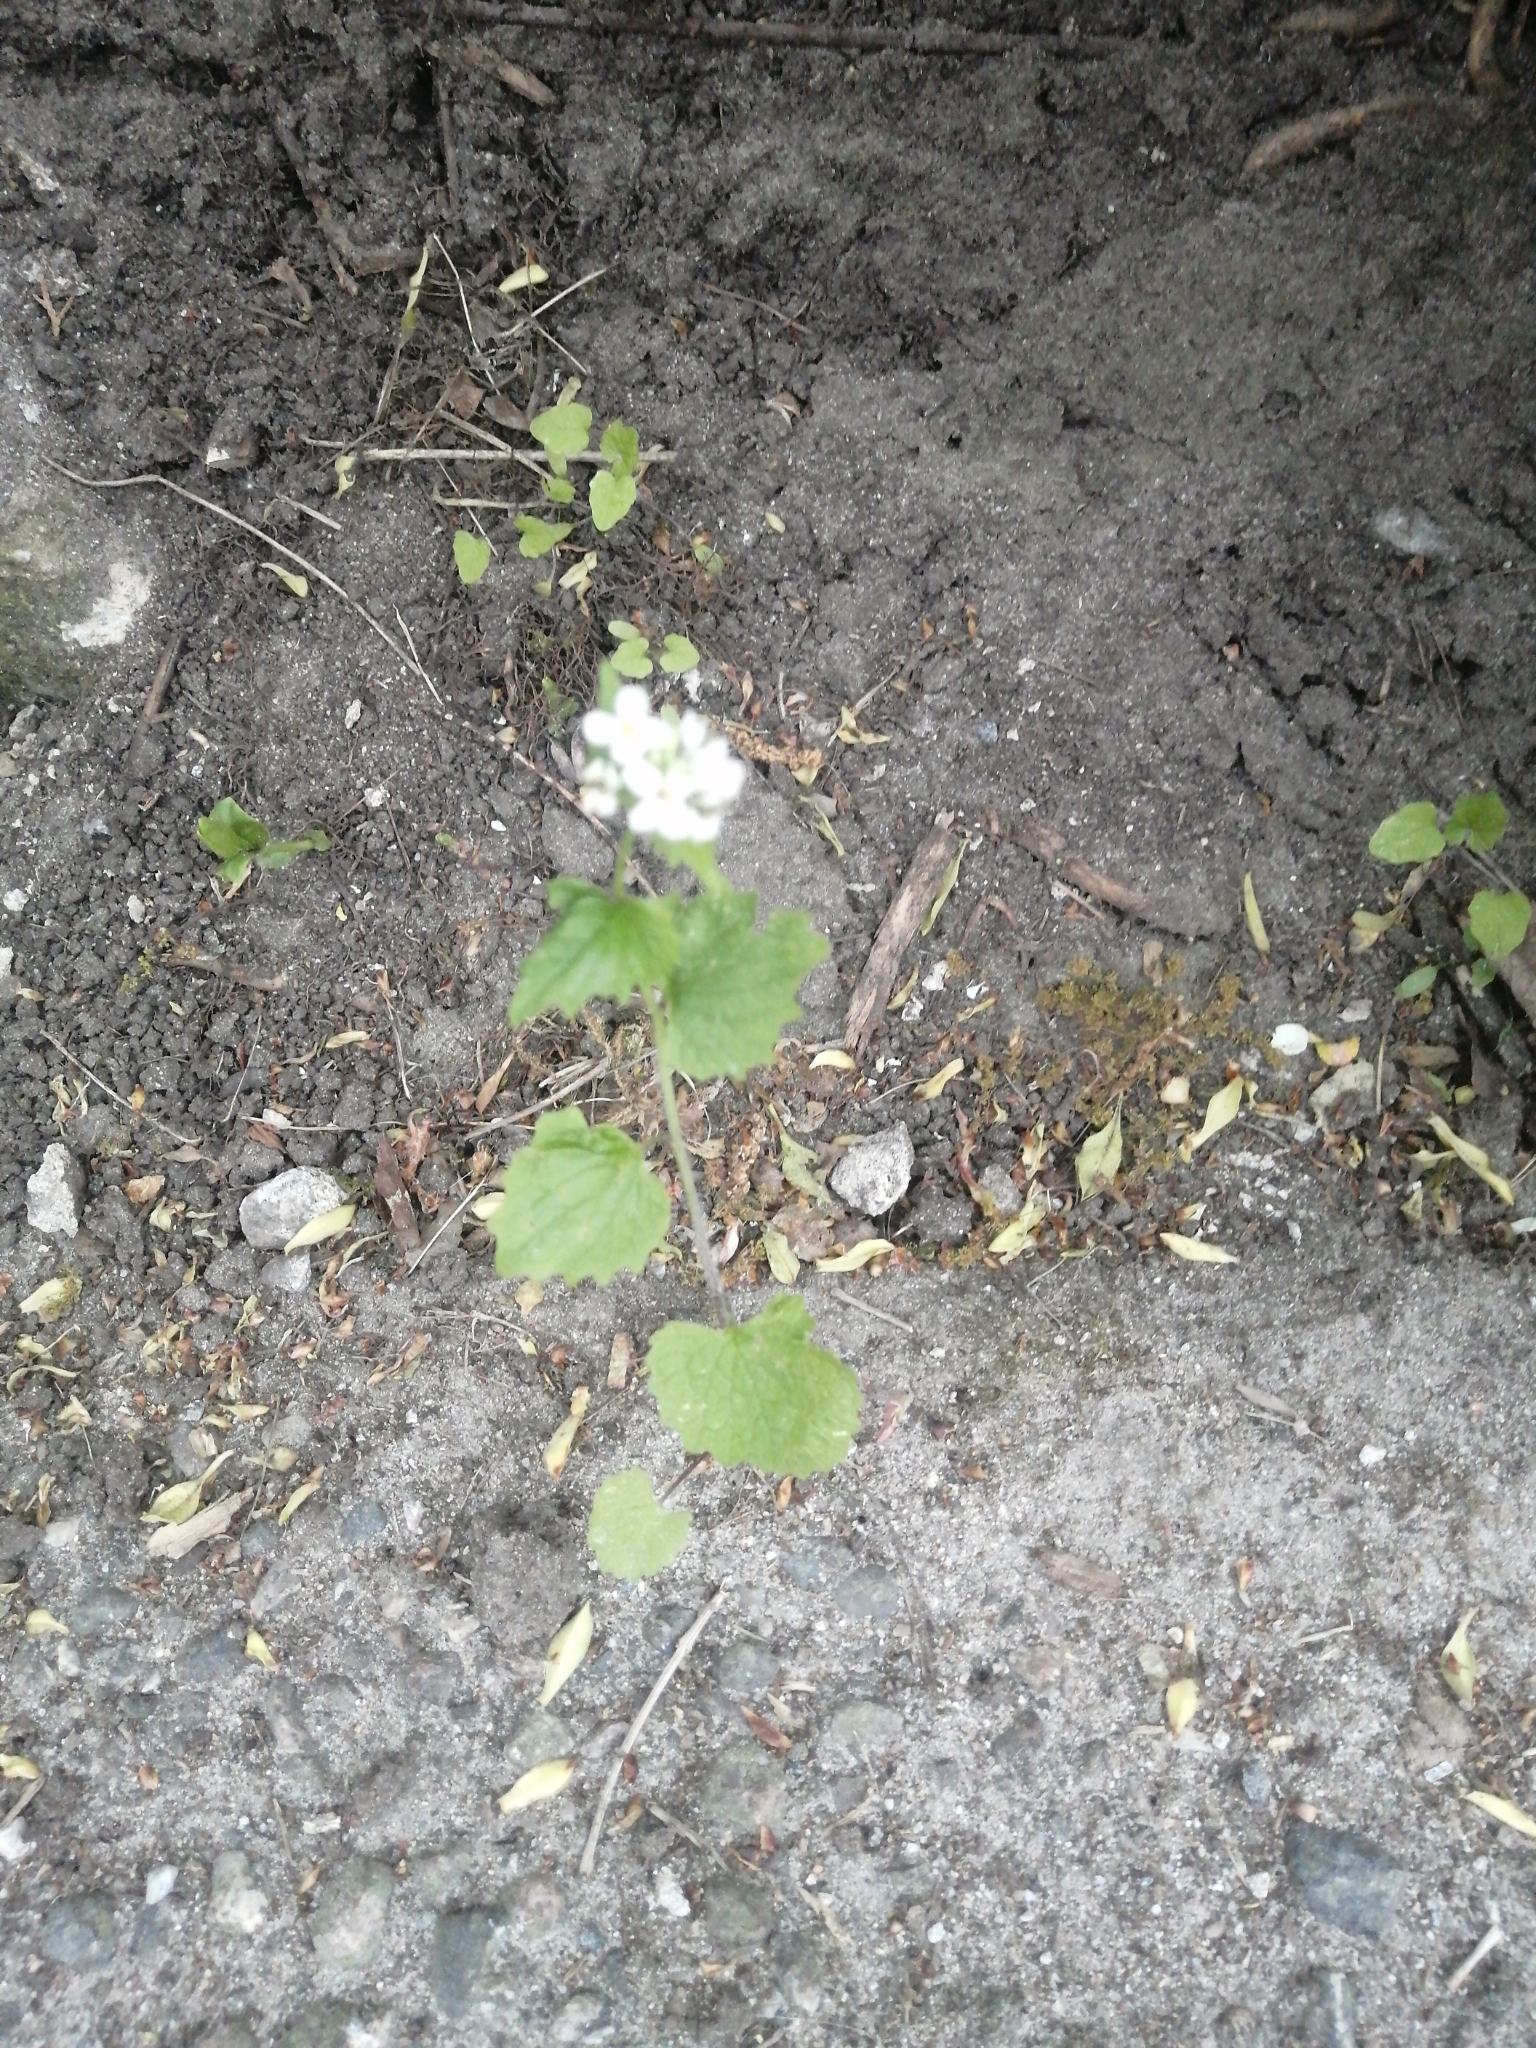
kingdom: Plantae
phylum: Tracheophyta
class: Magnoliopsida
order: Brassicales
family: Brassicaceae
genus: Alliaria
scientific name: Alliaria petiolata
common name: Garlic mustard
